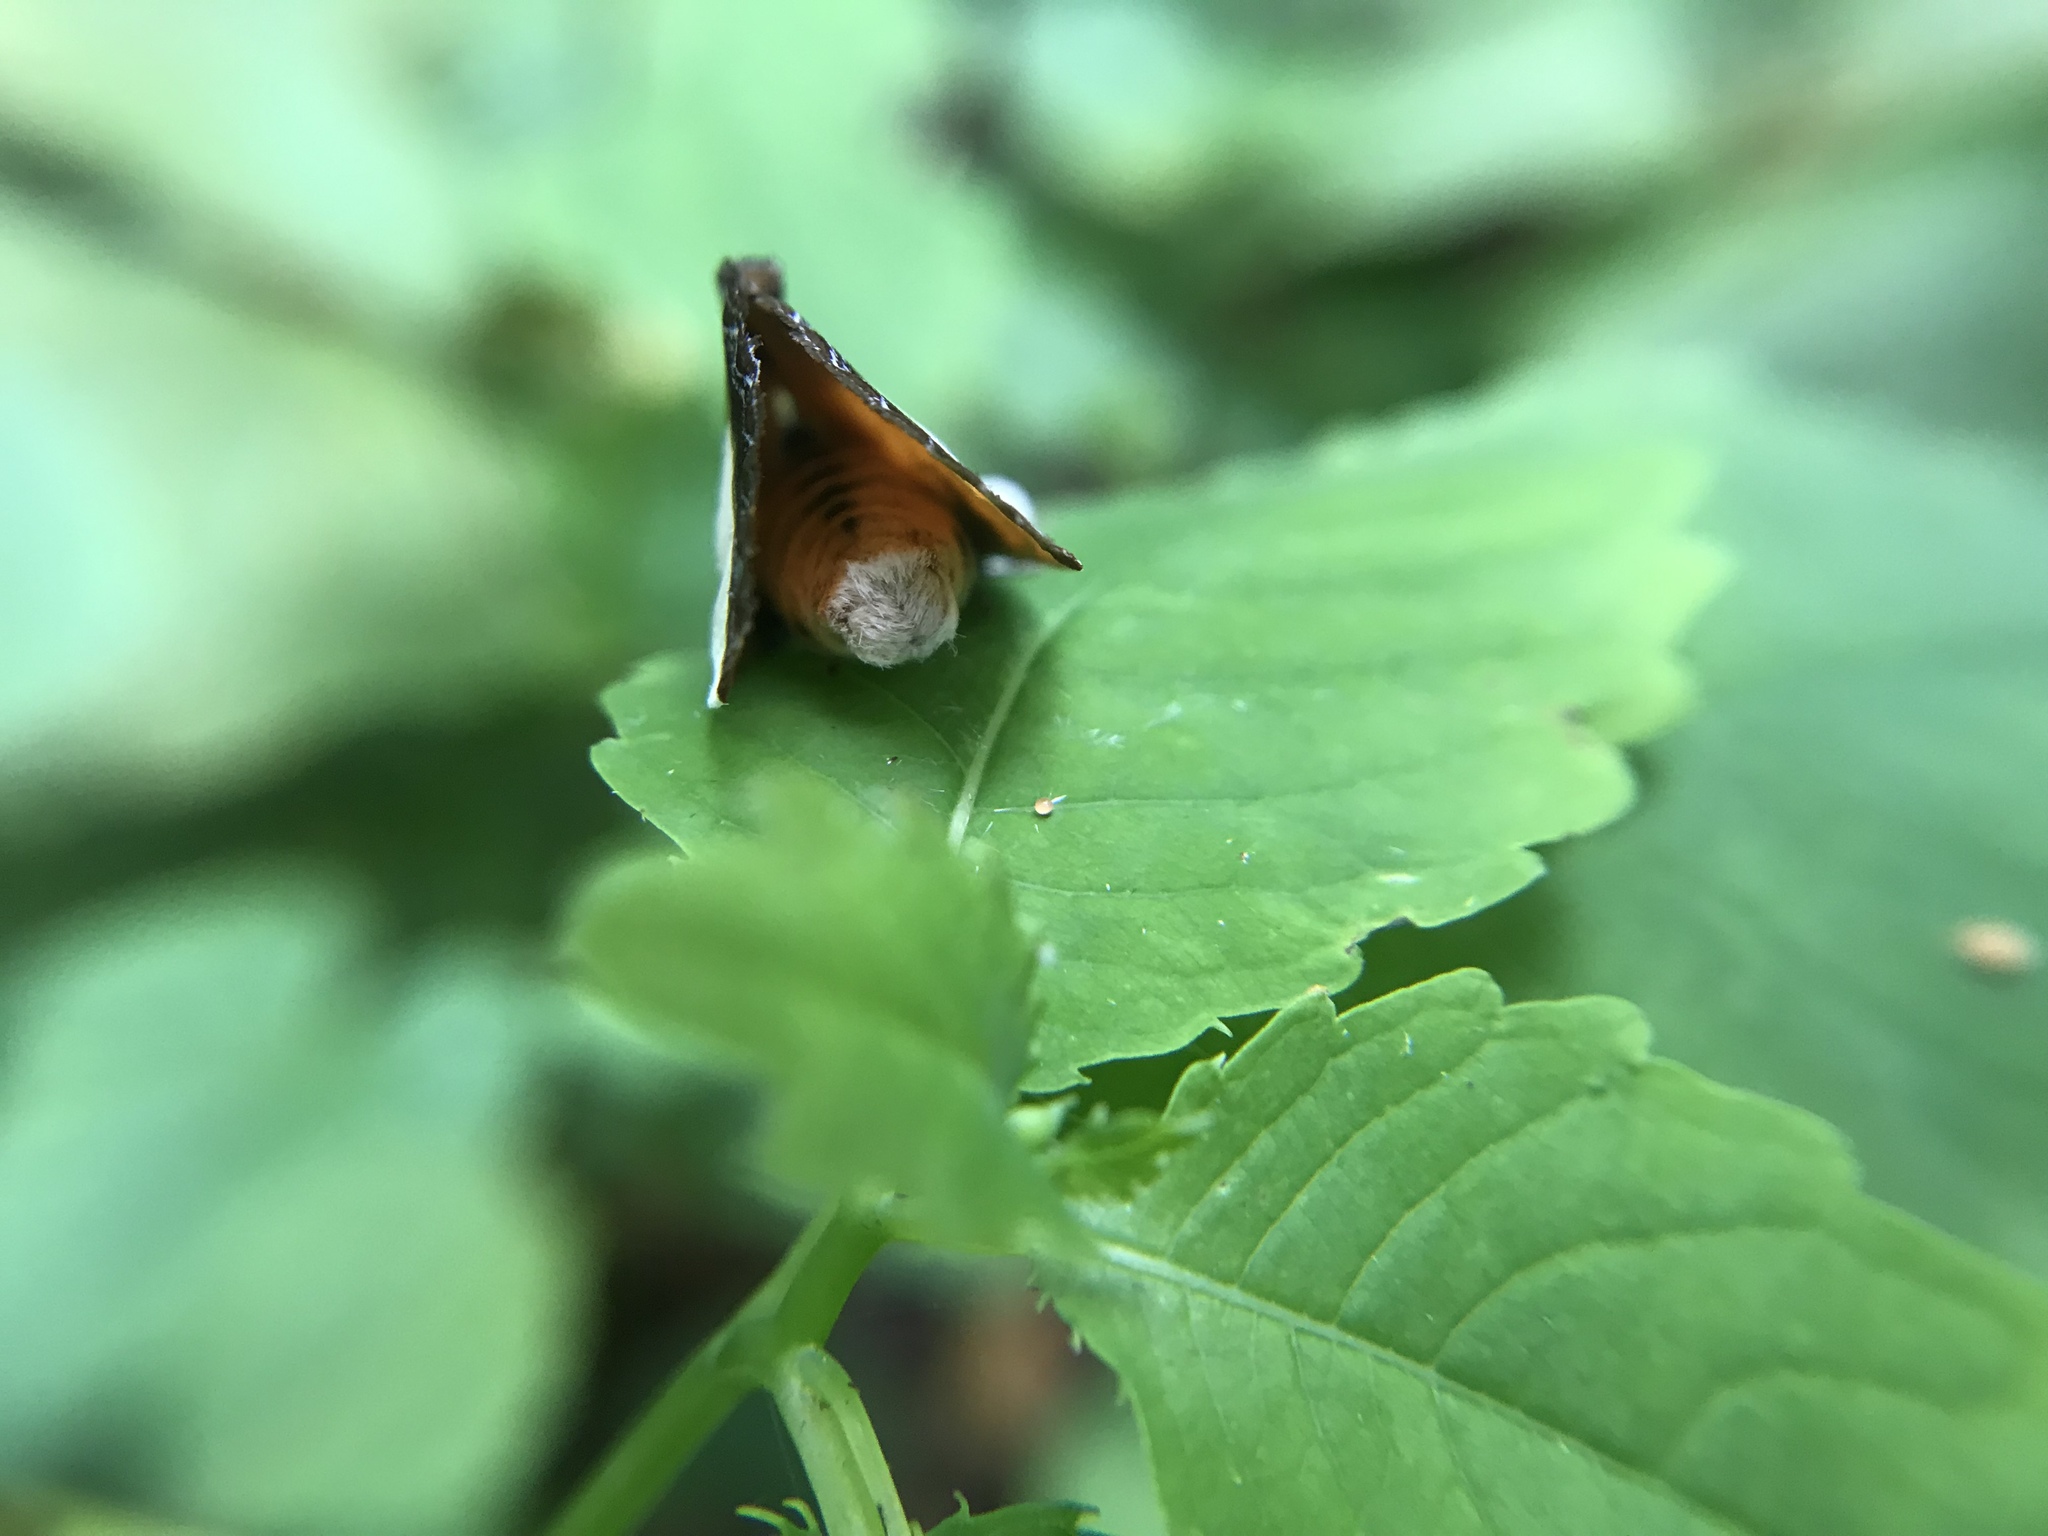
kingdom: Animalia
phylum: Arthropoda
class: Insecta
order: Lepidoptera
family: Noctuidae
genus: Eudryas
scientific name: Eudryas grata
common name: Beautiful wood-nymph
